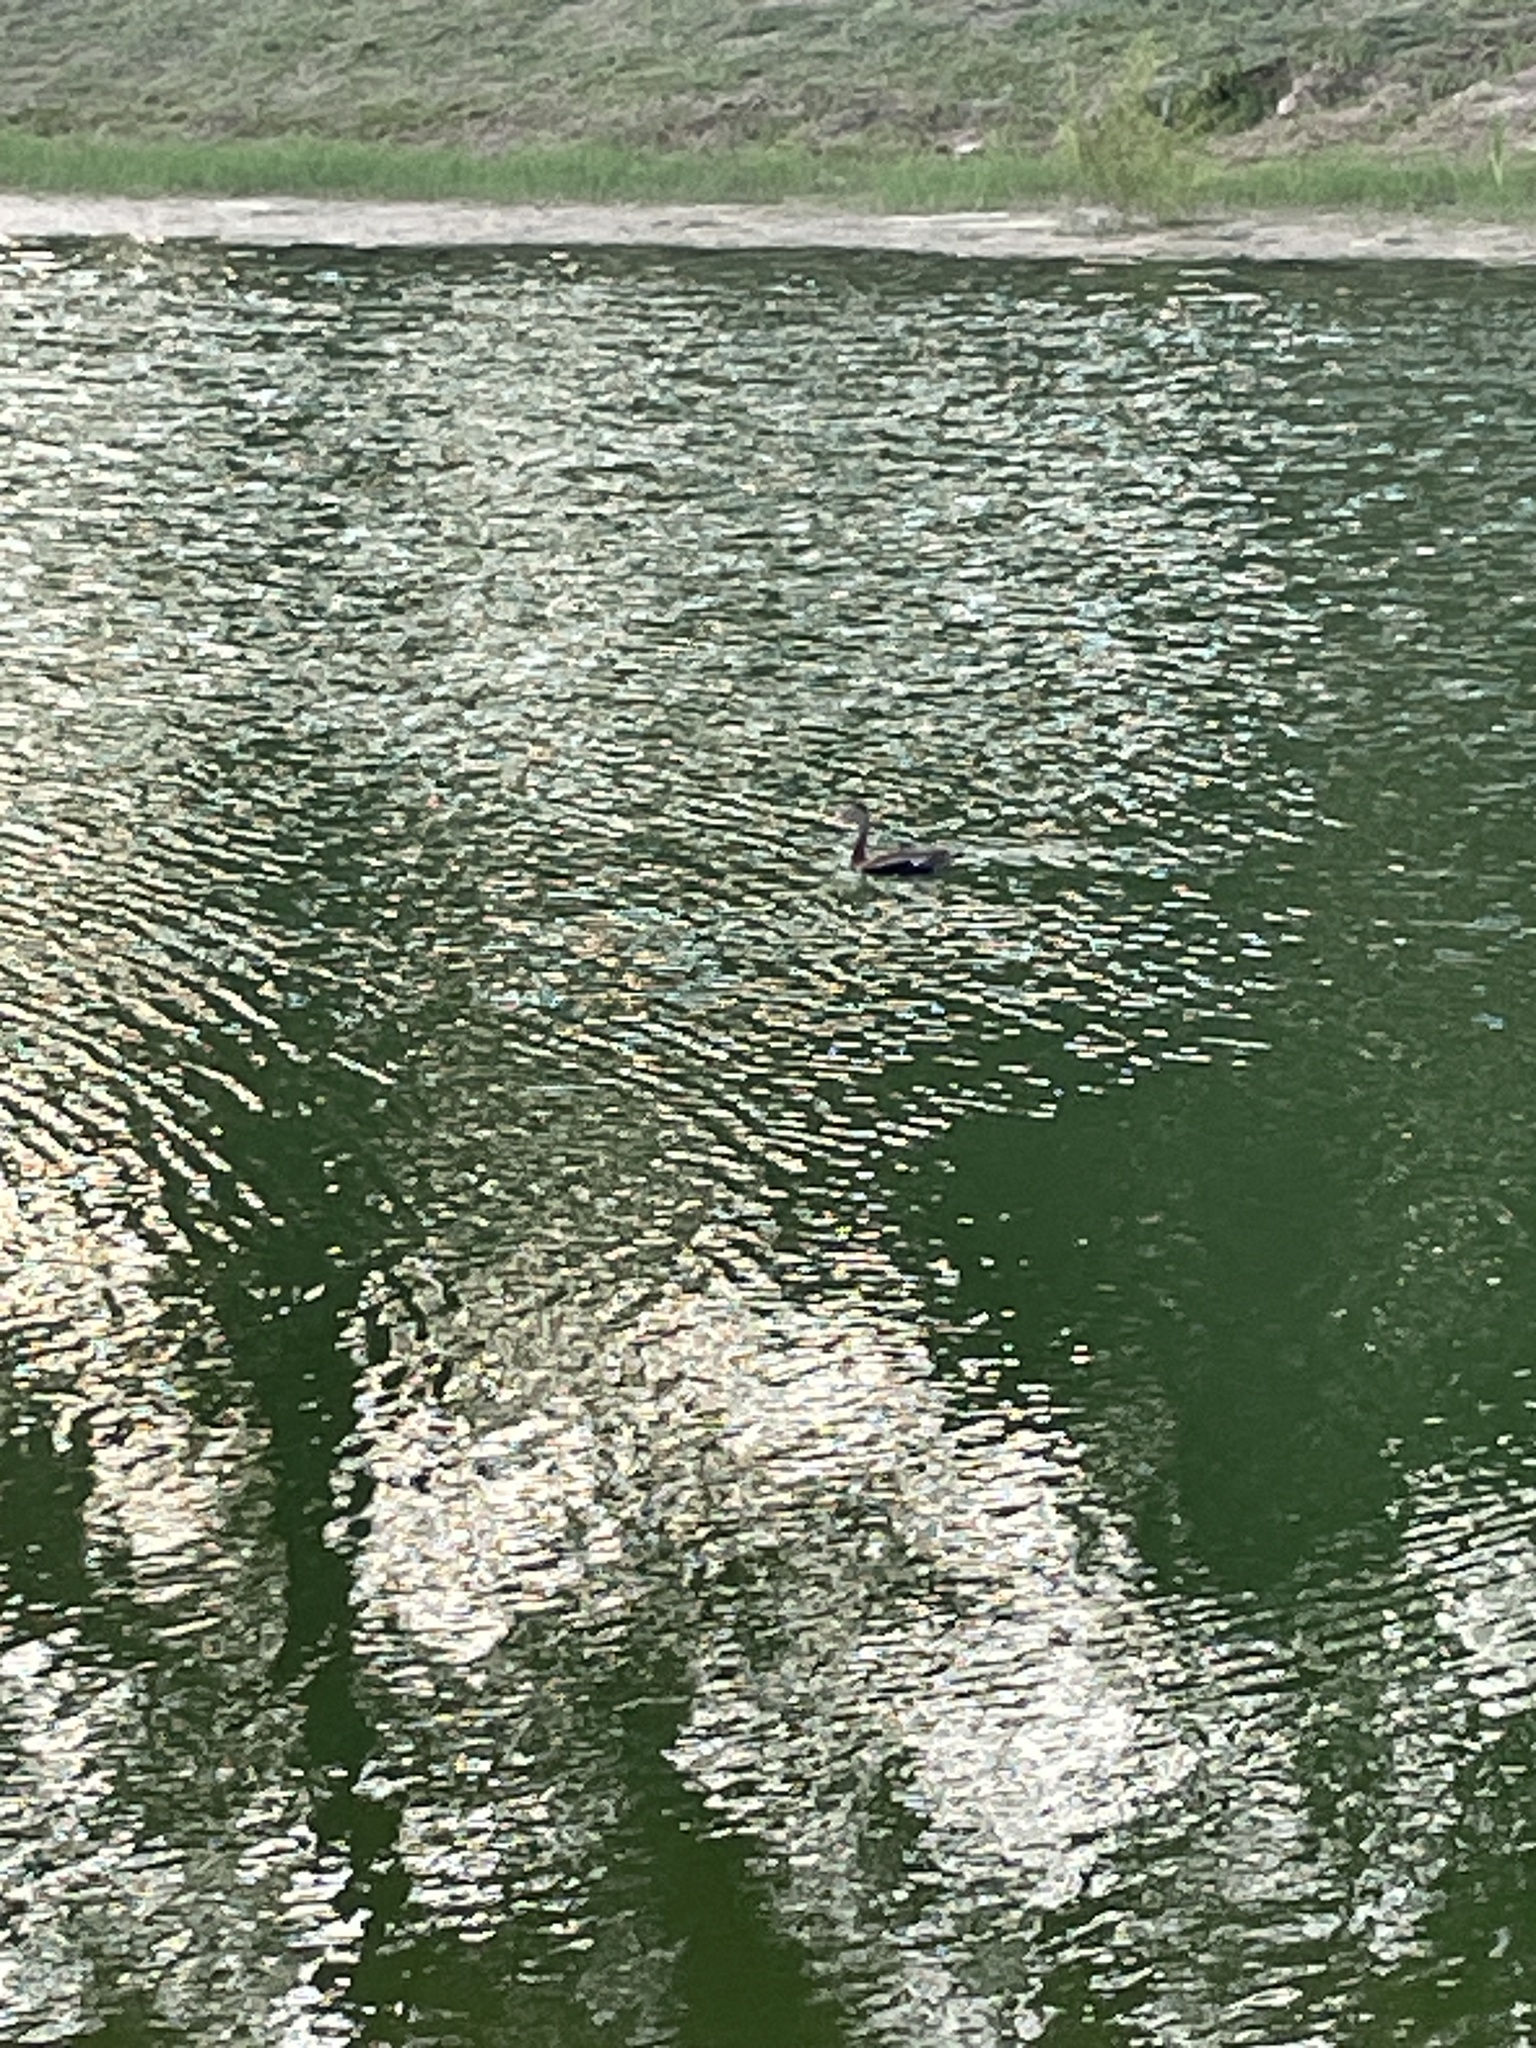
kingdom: Animalia
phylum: Chordata
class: Aves
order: Anseriformes
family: Anatidae
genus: Dendrocygna
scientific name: Dendrocygna autumnalis
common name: Black-bellied whistling duck
